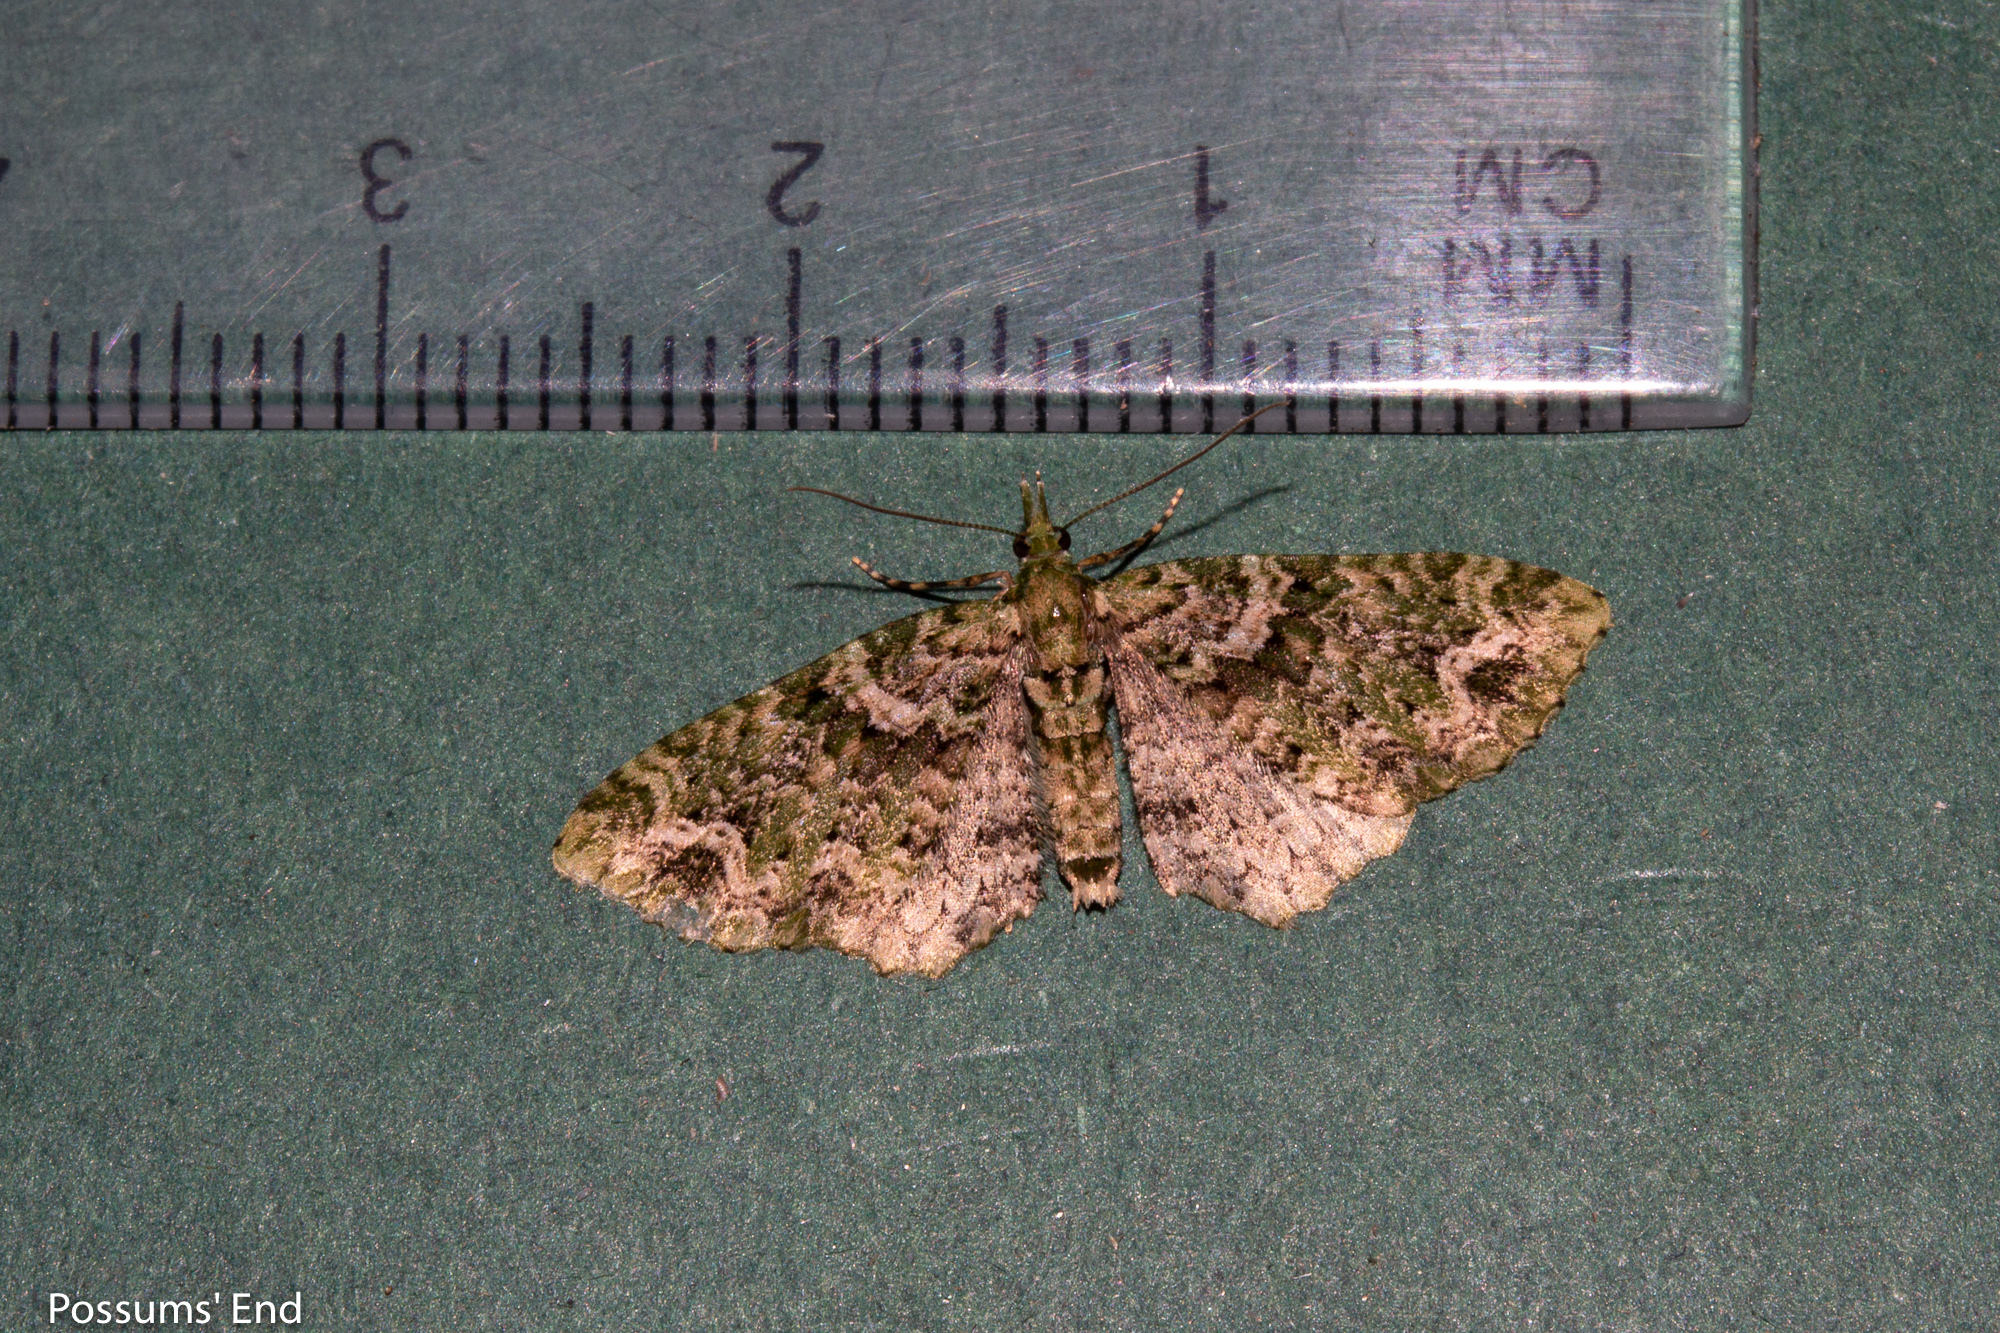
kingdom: Animalia
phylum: Arthropoda
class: Insecta
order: Lepidoptera
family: Geometridae
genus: Pasiphila
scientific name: Pasiphila muscosata
